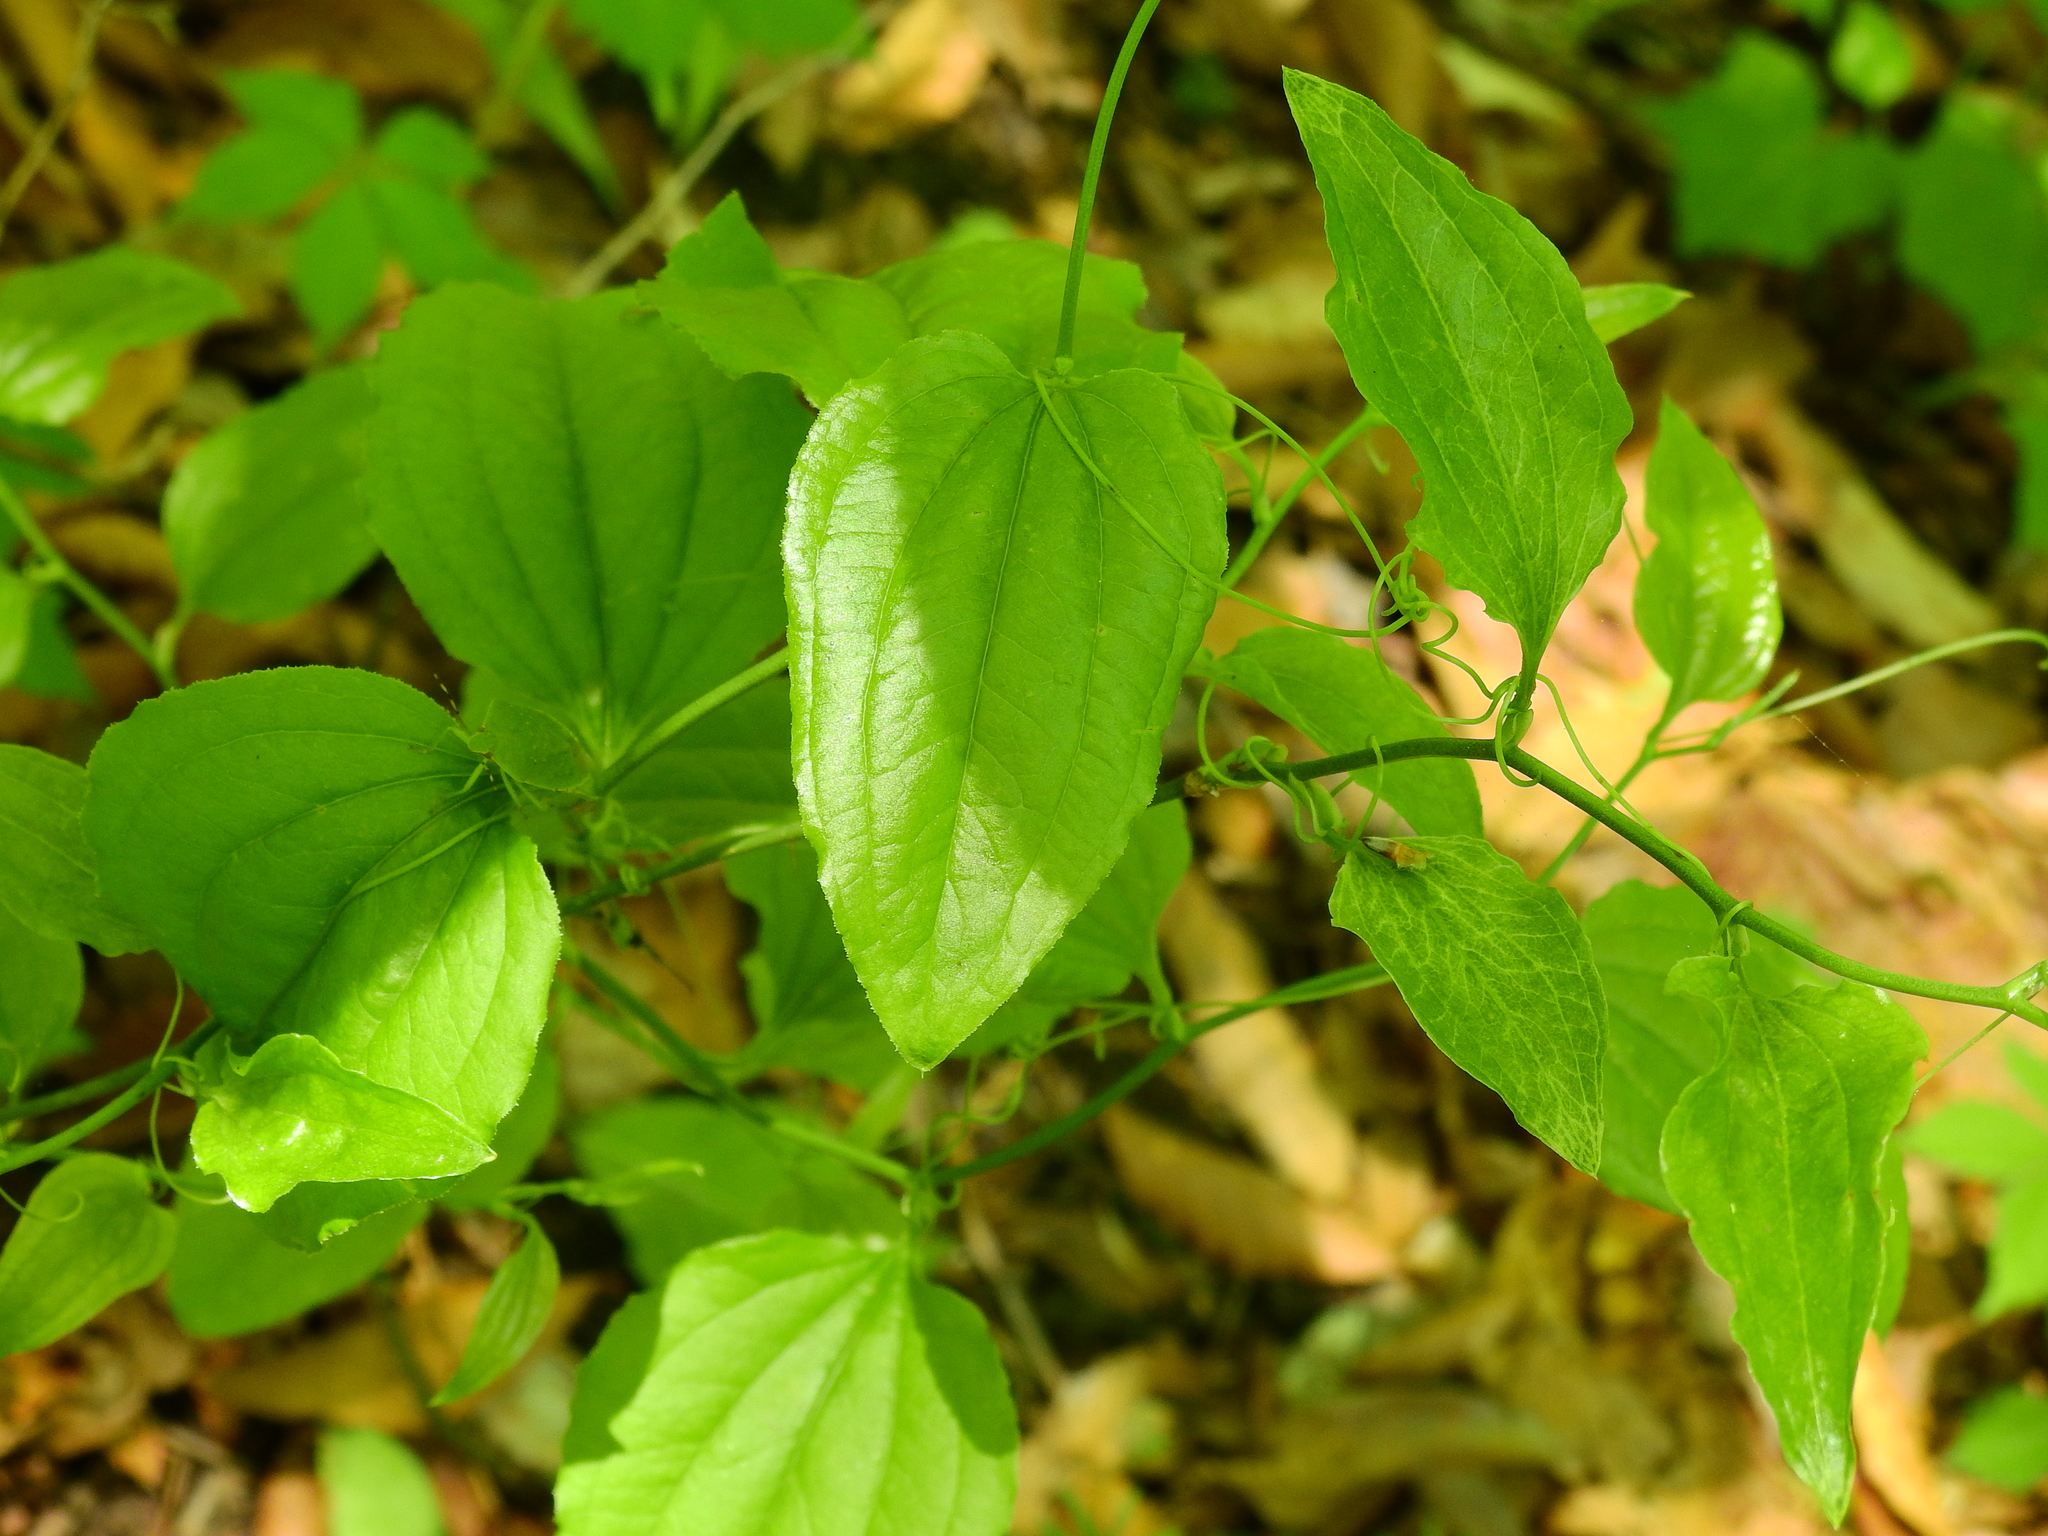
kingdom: Plantae
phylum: Tracheophyta
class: Liliopsida
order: Liliales
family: Smilacaceae
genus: Smilax
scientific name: Smilax tamnoides
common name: Hellfetter
